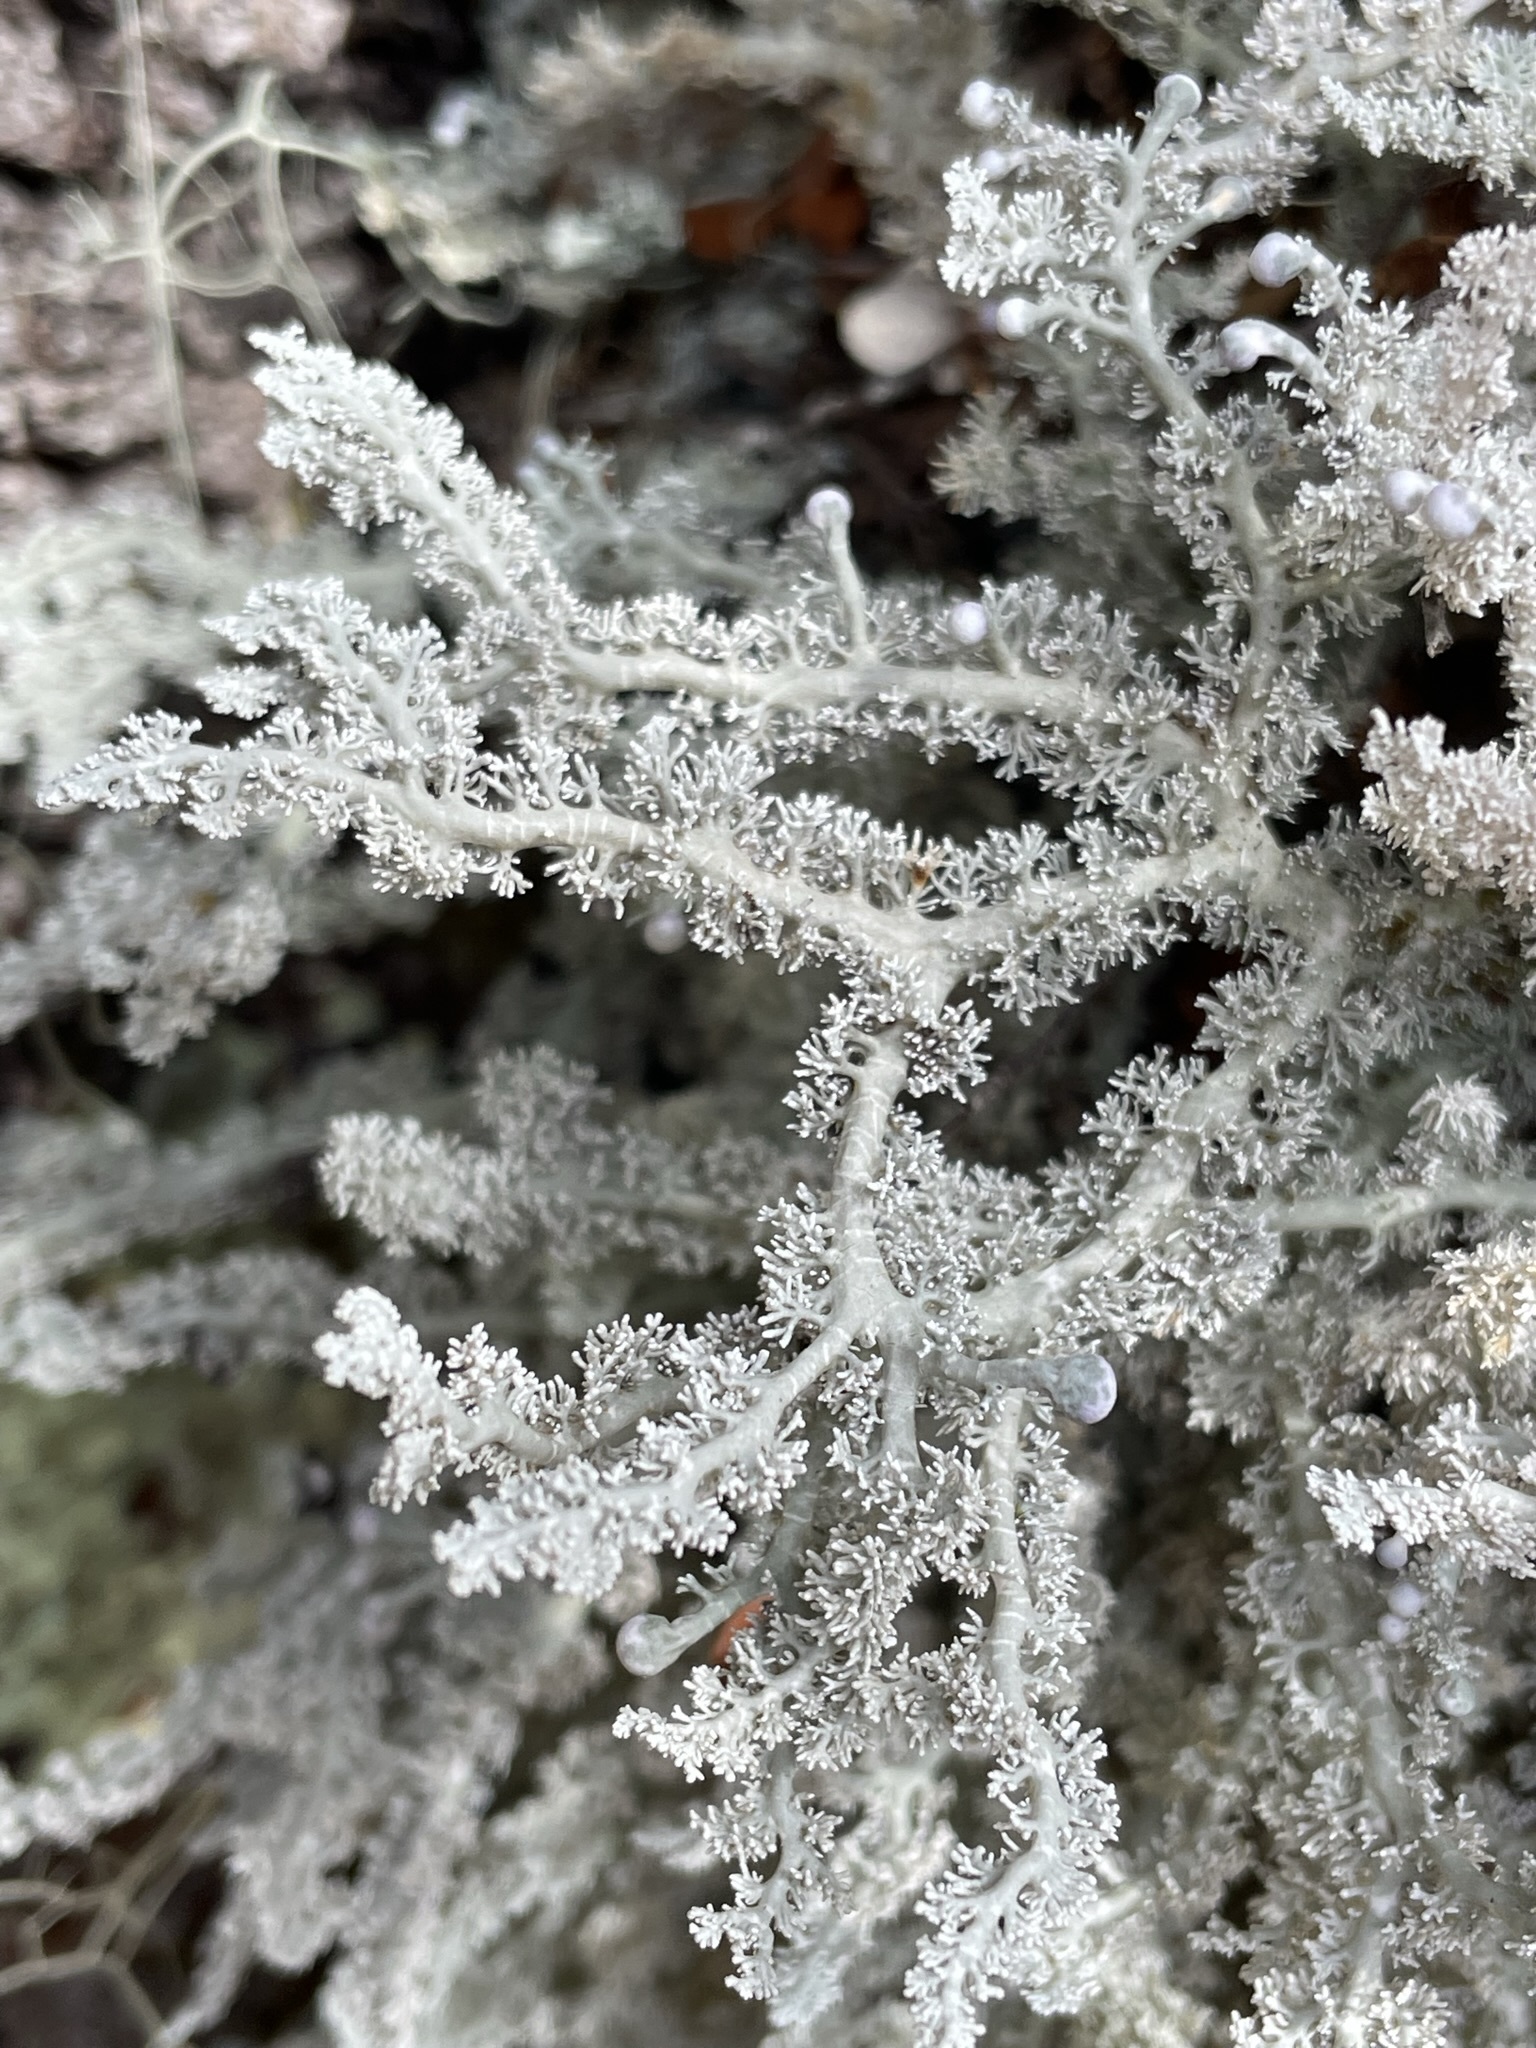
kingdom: Fungi
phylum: Ascomycota
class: Lecanoromycetes
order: Lecanorales
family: Sphaerophoraceae
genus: Sphaerophorus
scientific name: Sphaerophorus stereocauloides
